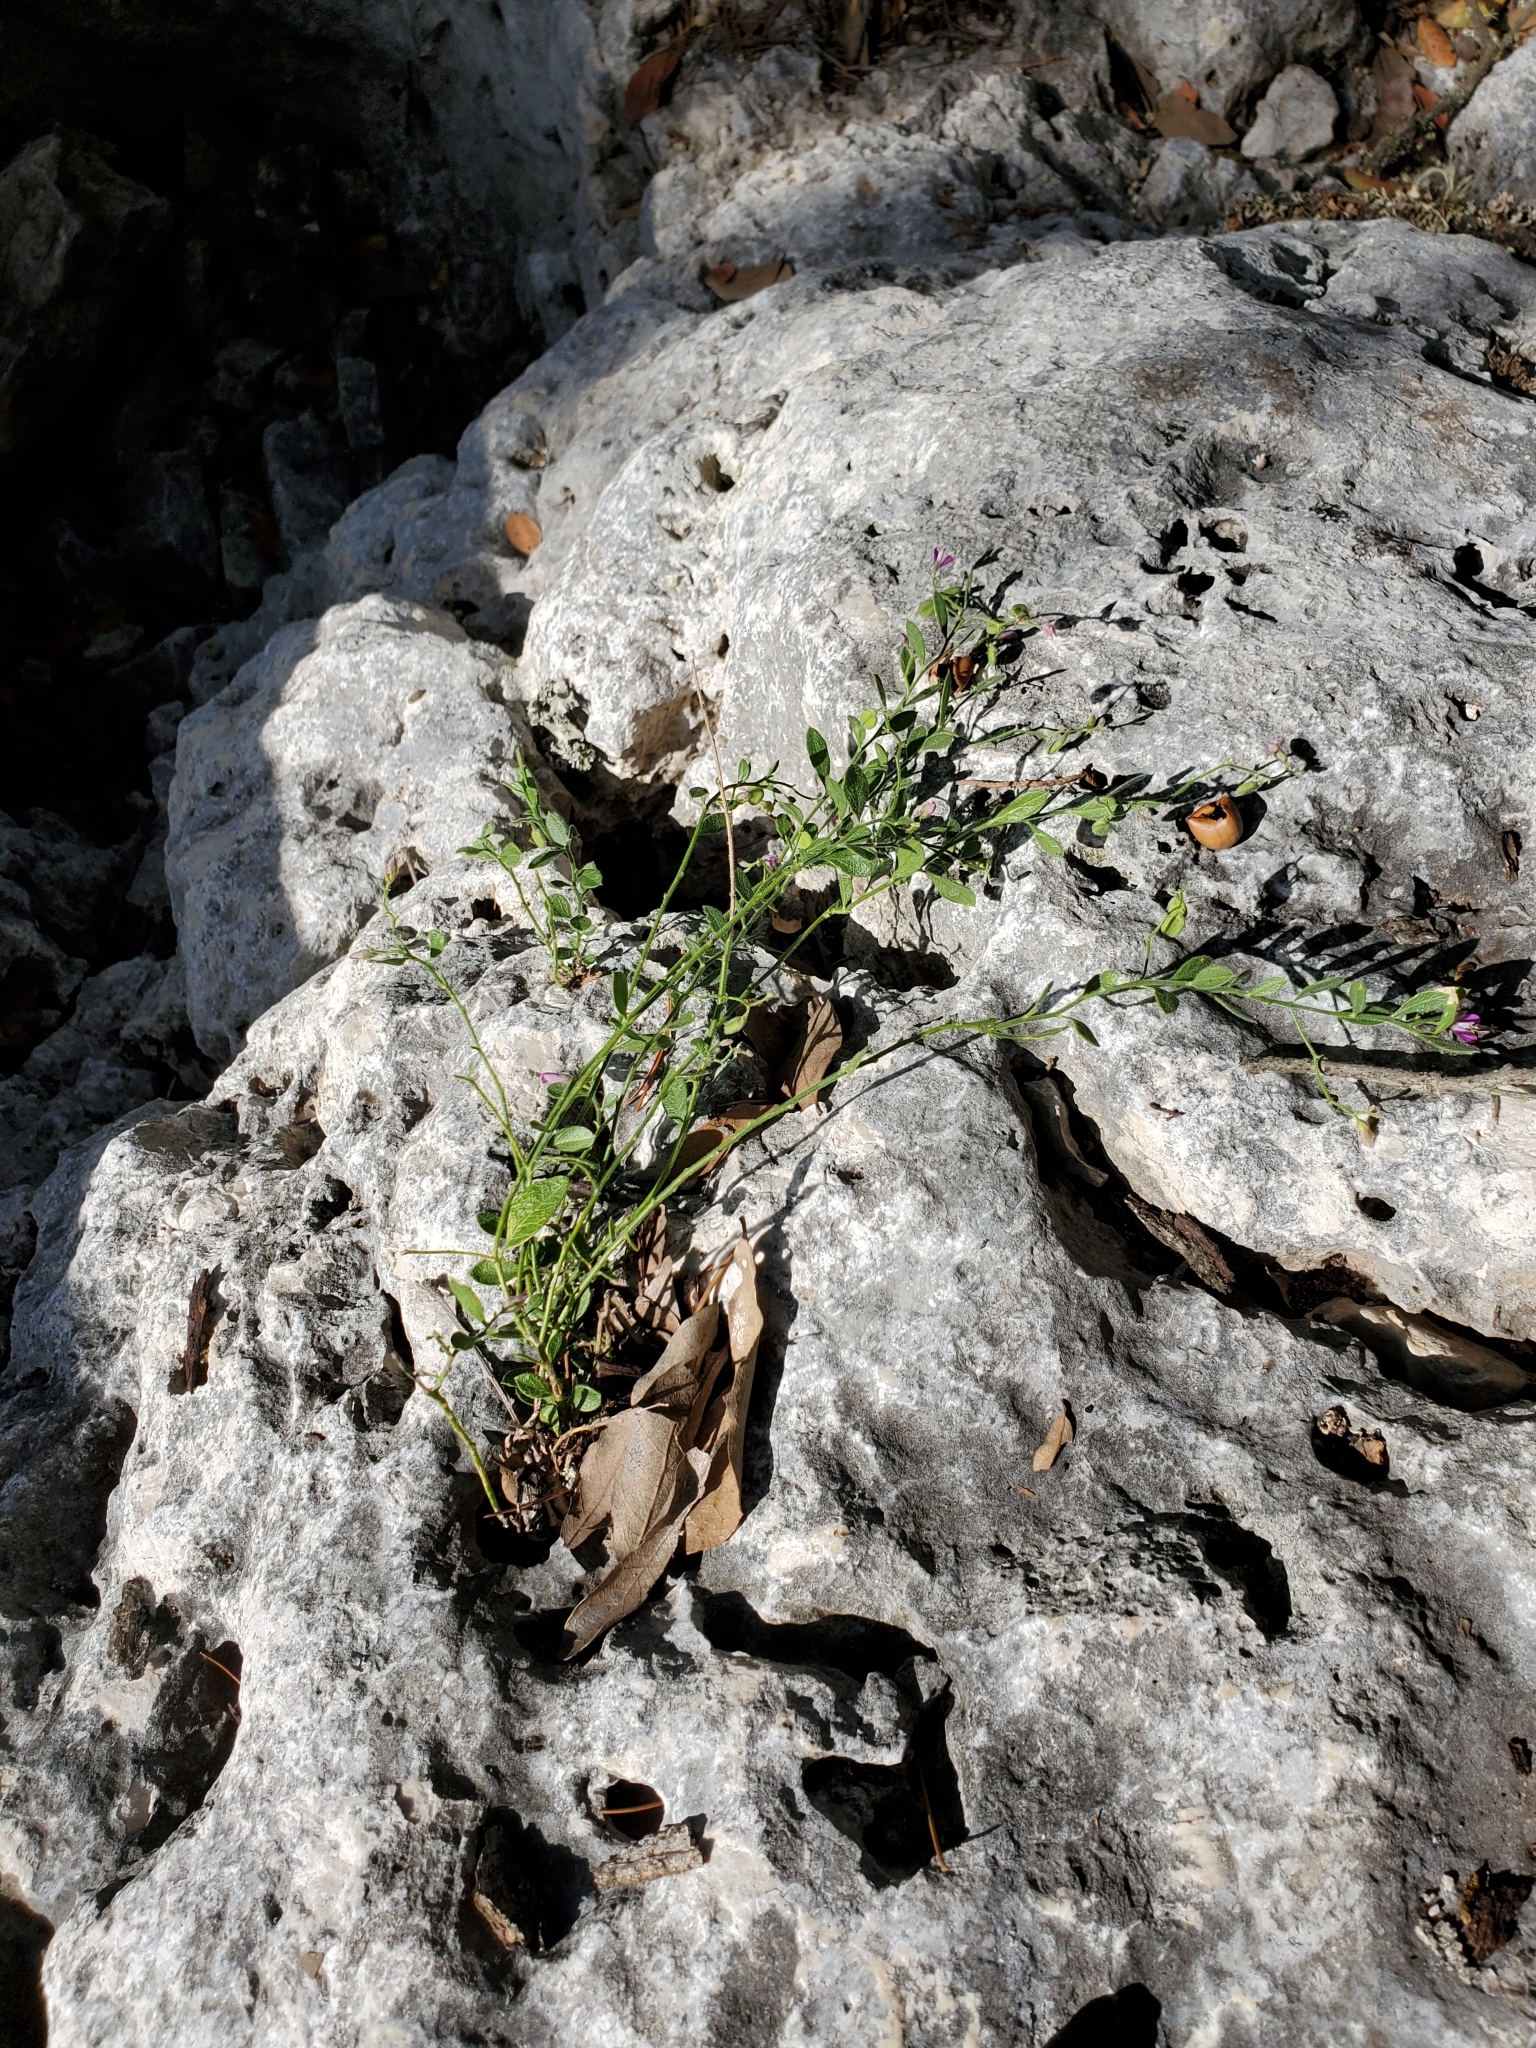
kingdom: Plantae
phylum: Tracheophyta
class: Magnoliopsida
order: Fabales
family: Polygalaceae
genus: Rhinotropis
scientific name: Rhinotropis lindheimeri
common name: Shrubby milkwort
